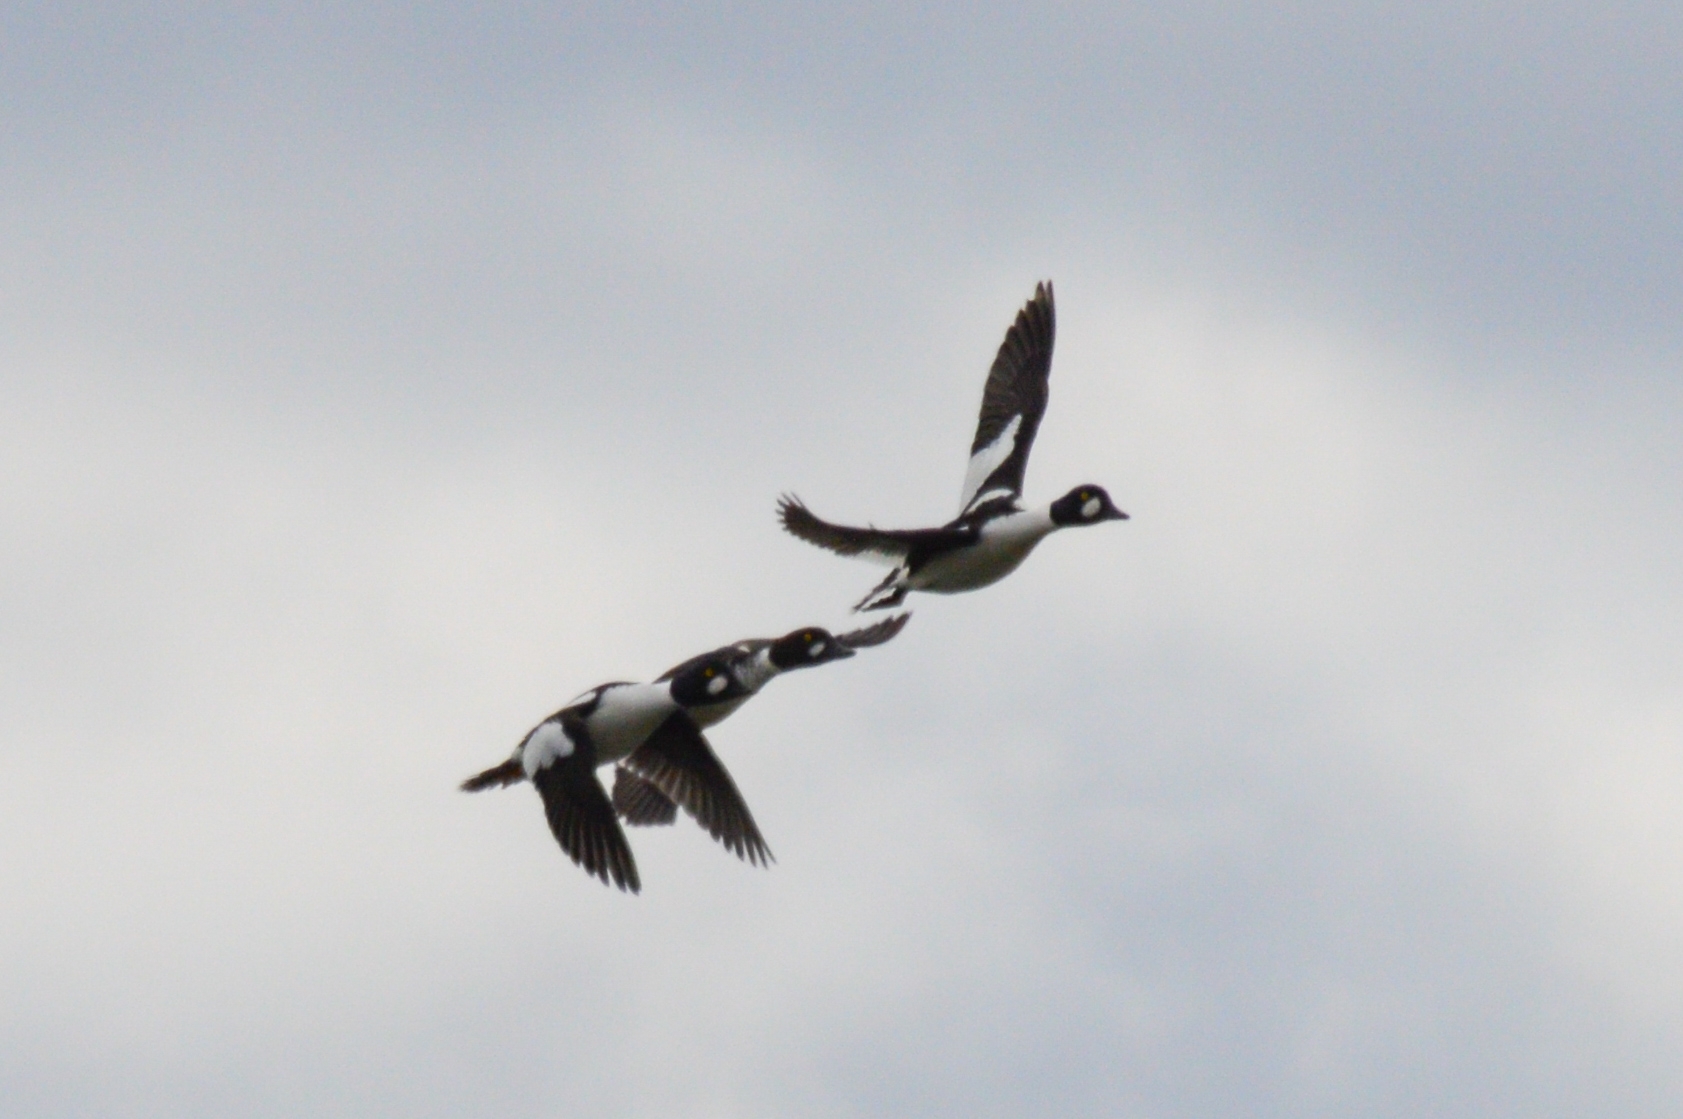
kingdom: Animalia
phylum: Chordata
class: Aves
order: Anseriformes
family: Anatidae
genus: Bucephala
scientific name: Bucephala clangula
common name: Common goldeneye
